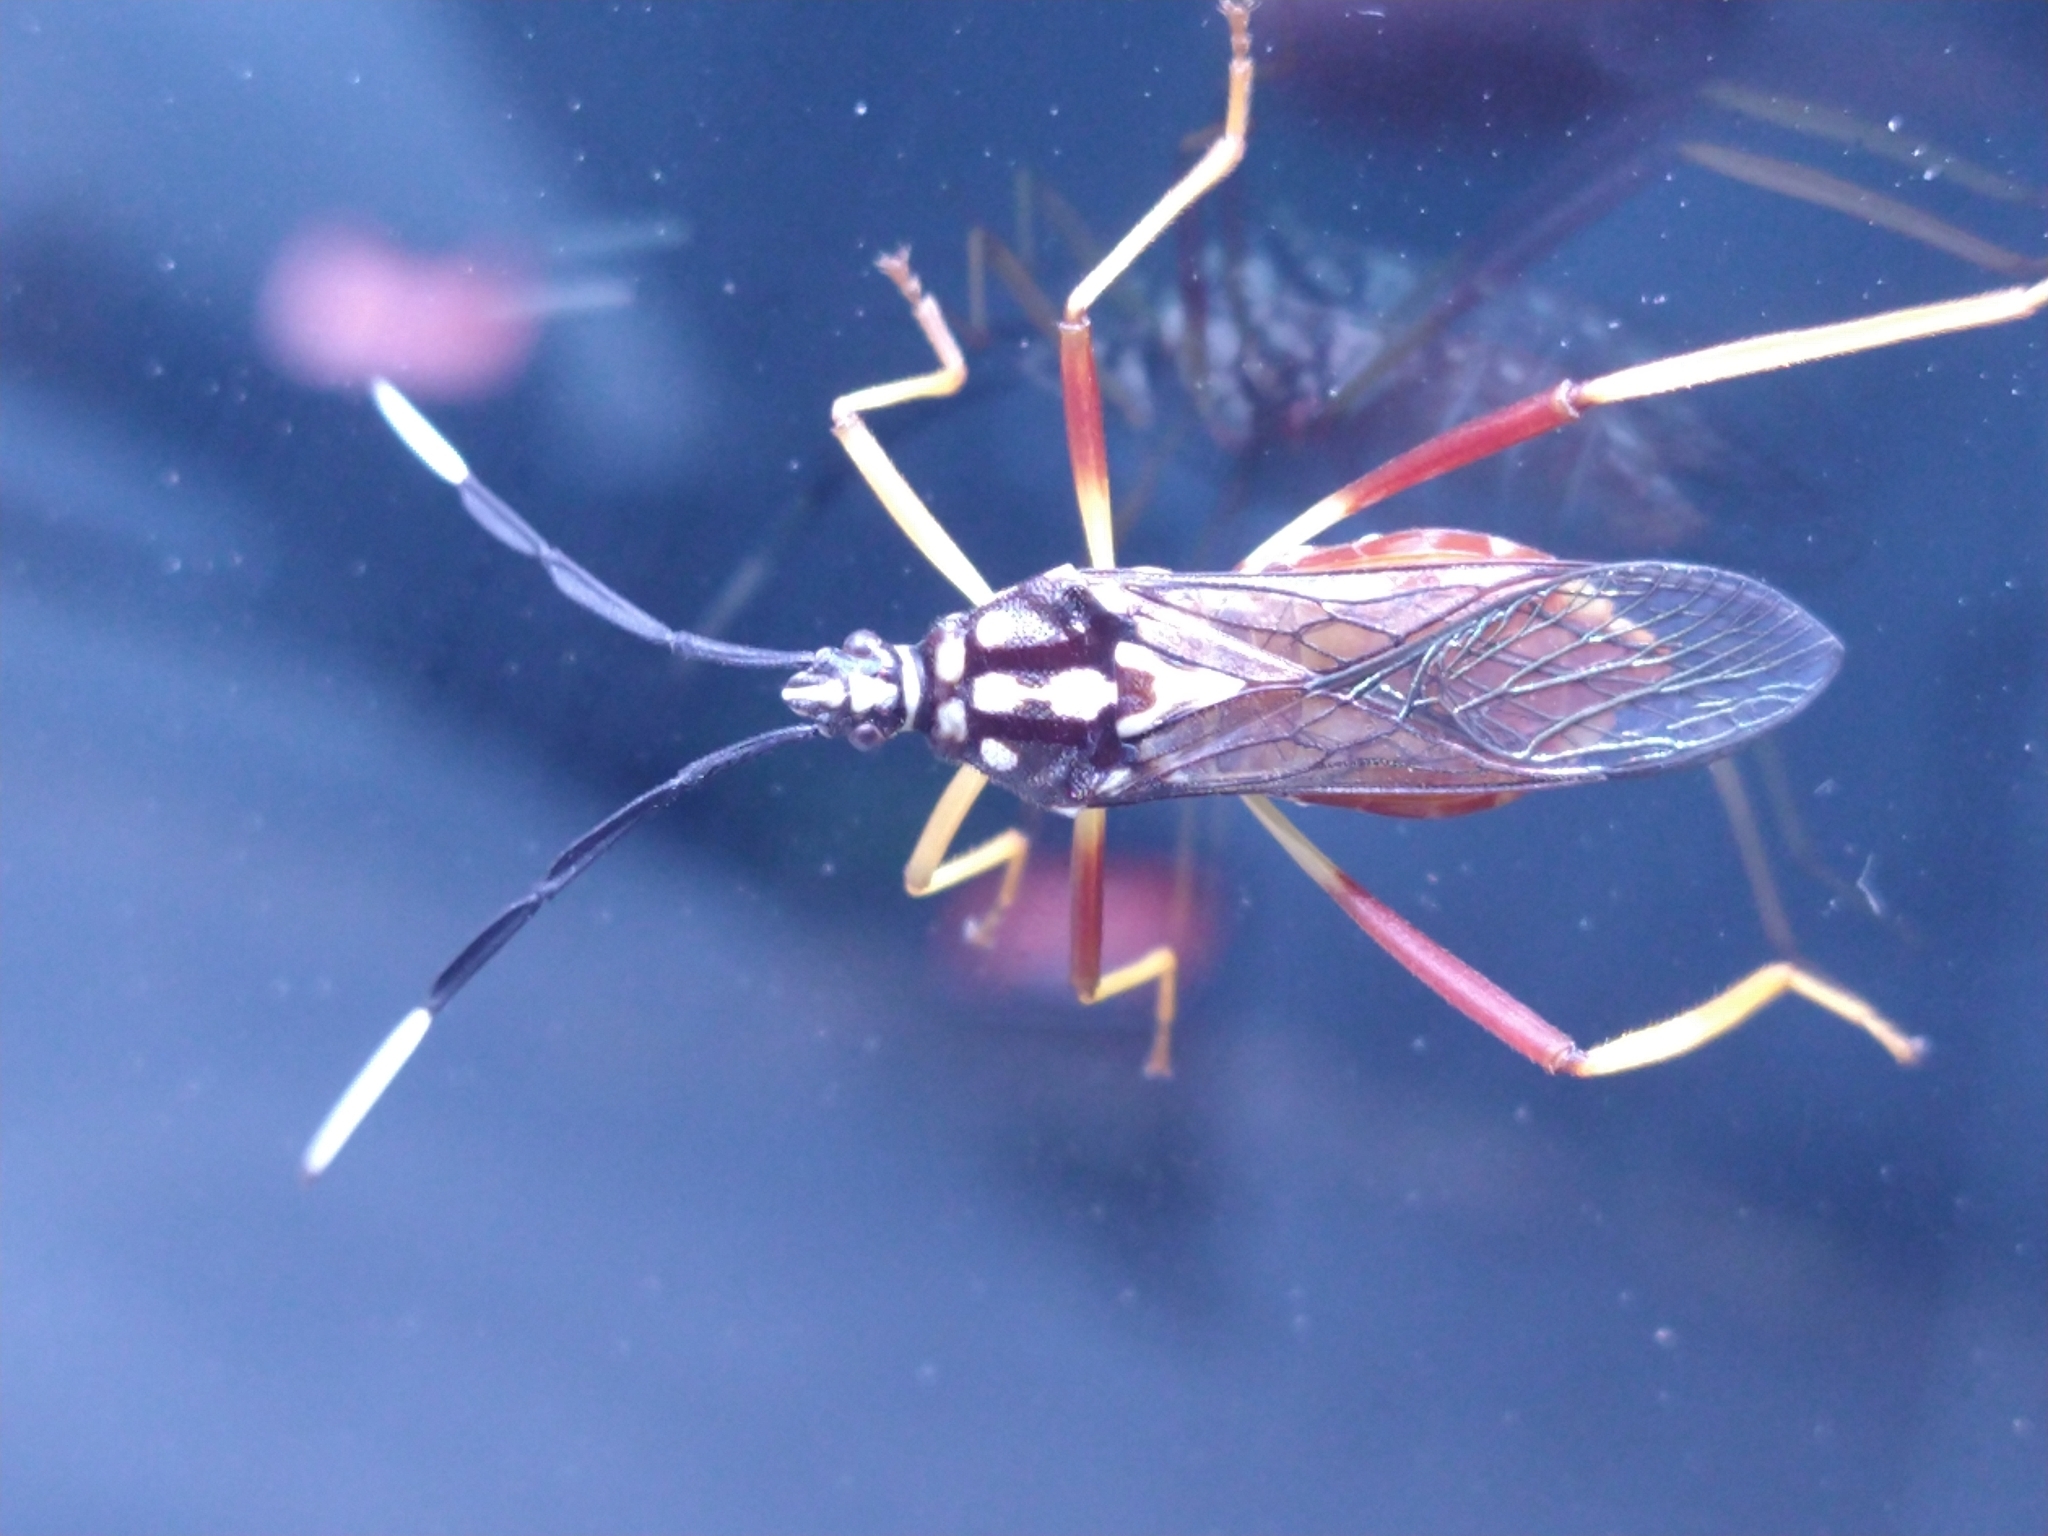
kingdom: Animalia
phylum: Arthropoda
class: Insecta
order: Hemiptera
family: Coreidae
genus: Holhymenia
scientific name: Holhymenia histrio
